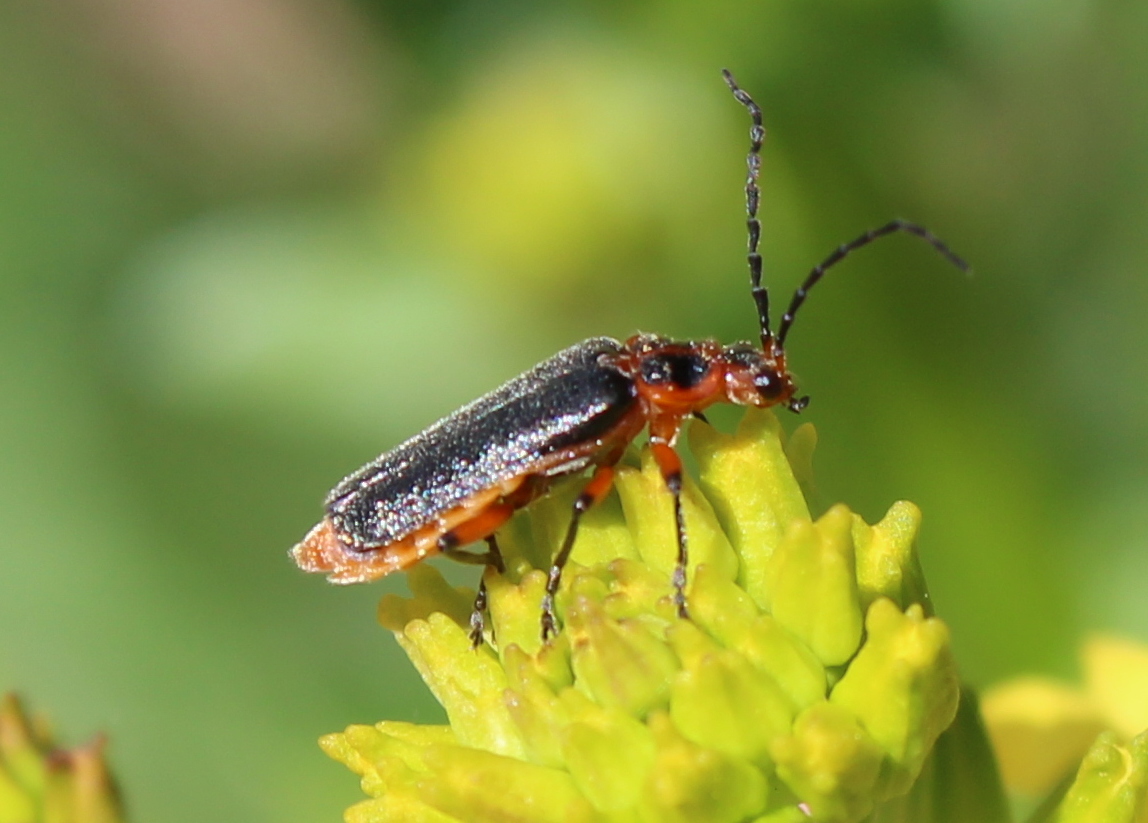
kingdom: Animalia
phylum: Arthropoda
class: Insecta
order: Coleoptera
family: Cantharidae
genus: Atalantycha
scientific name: Atalantycha bilineata
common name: Two-lined leatherwing
